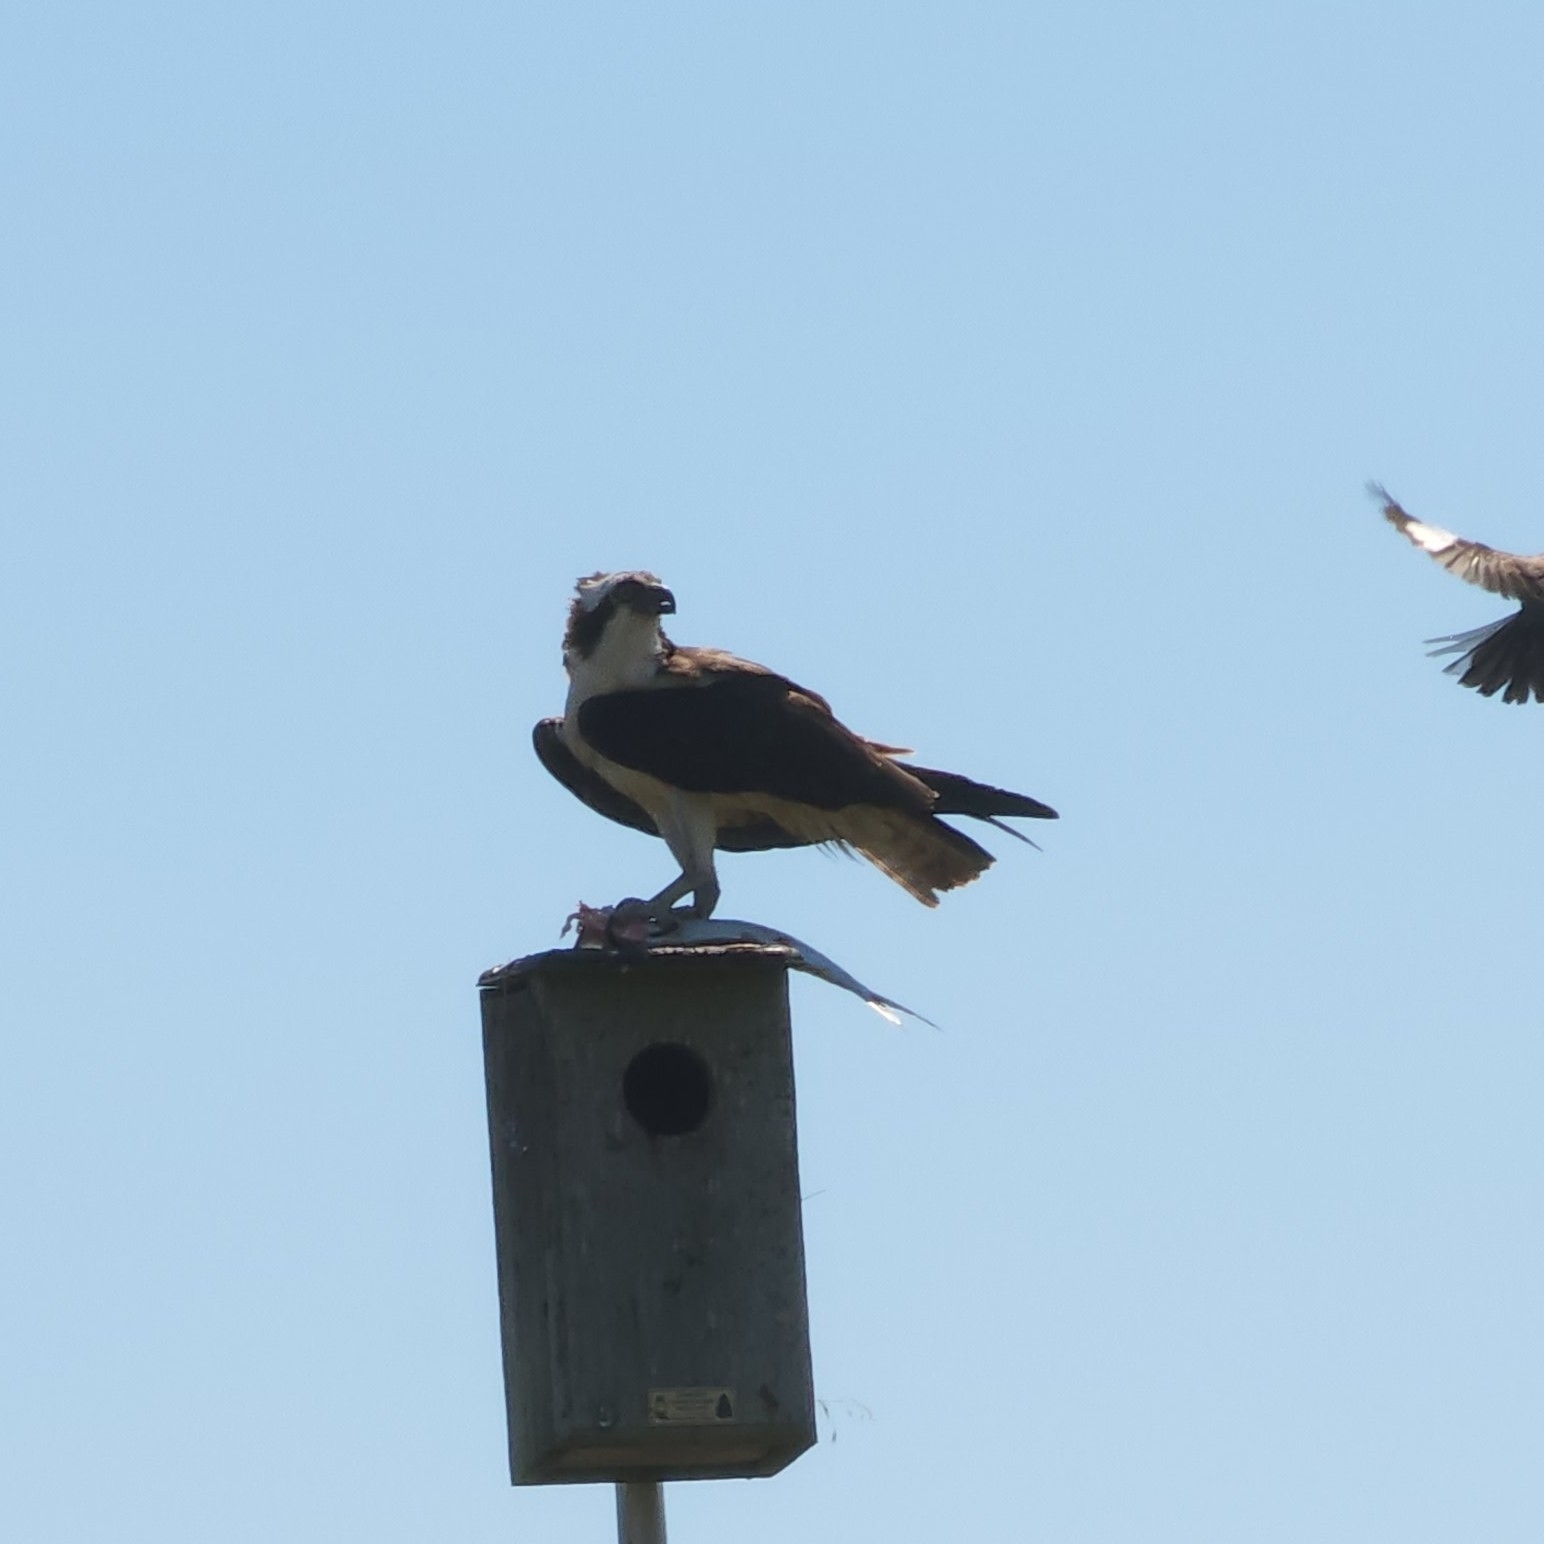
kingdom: Animalia
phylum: Chordata
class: Aves
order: Passeriformes
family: Mimidae
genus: Mimus
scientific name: Mimus polyglottos
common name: Northern mockingbird
